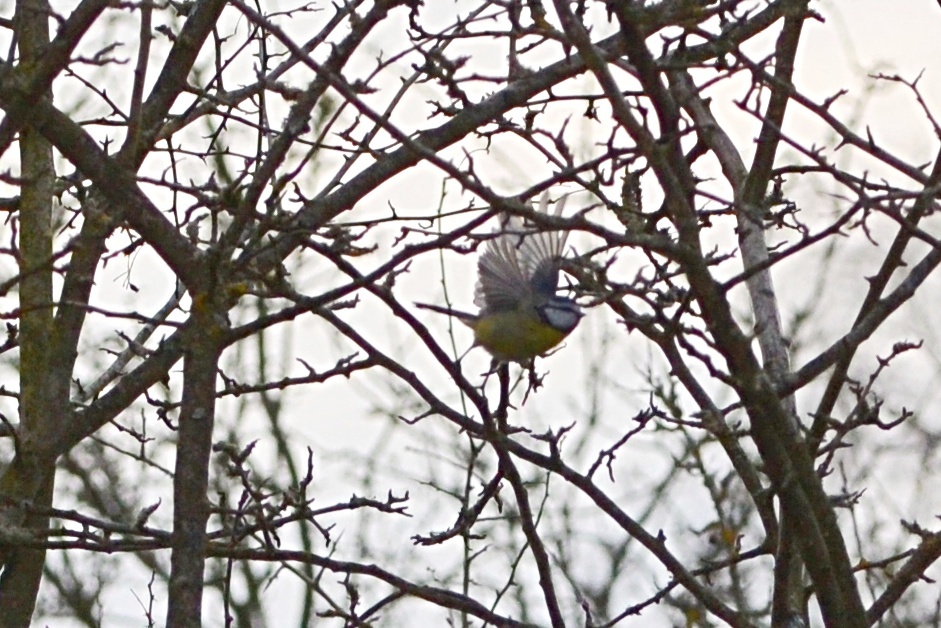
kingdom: Animalia
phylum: Chordata
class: Aves
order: Passeriformes
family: Paridae
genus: Cyanistes
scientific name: Cyanistes caeruleus
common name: Eurasian blue tit
